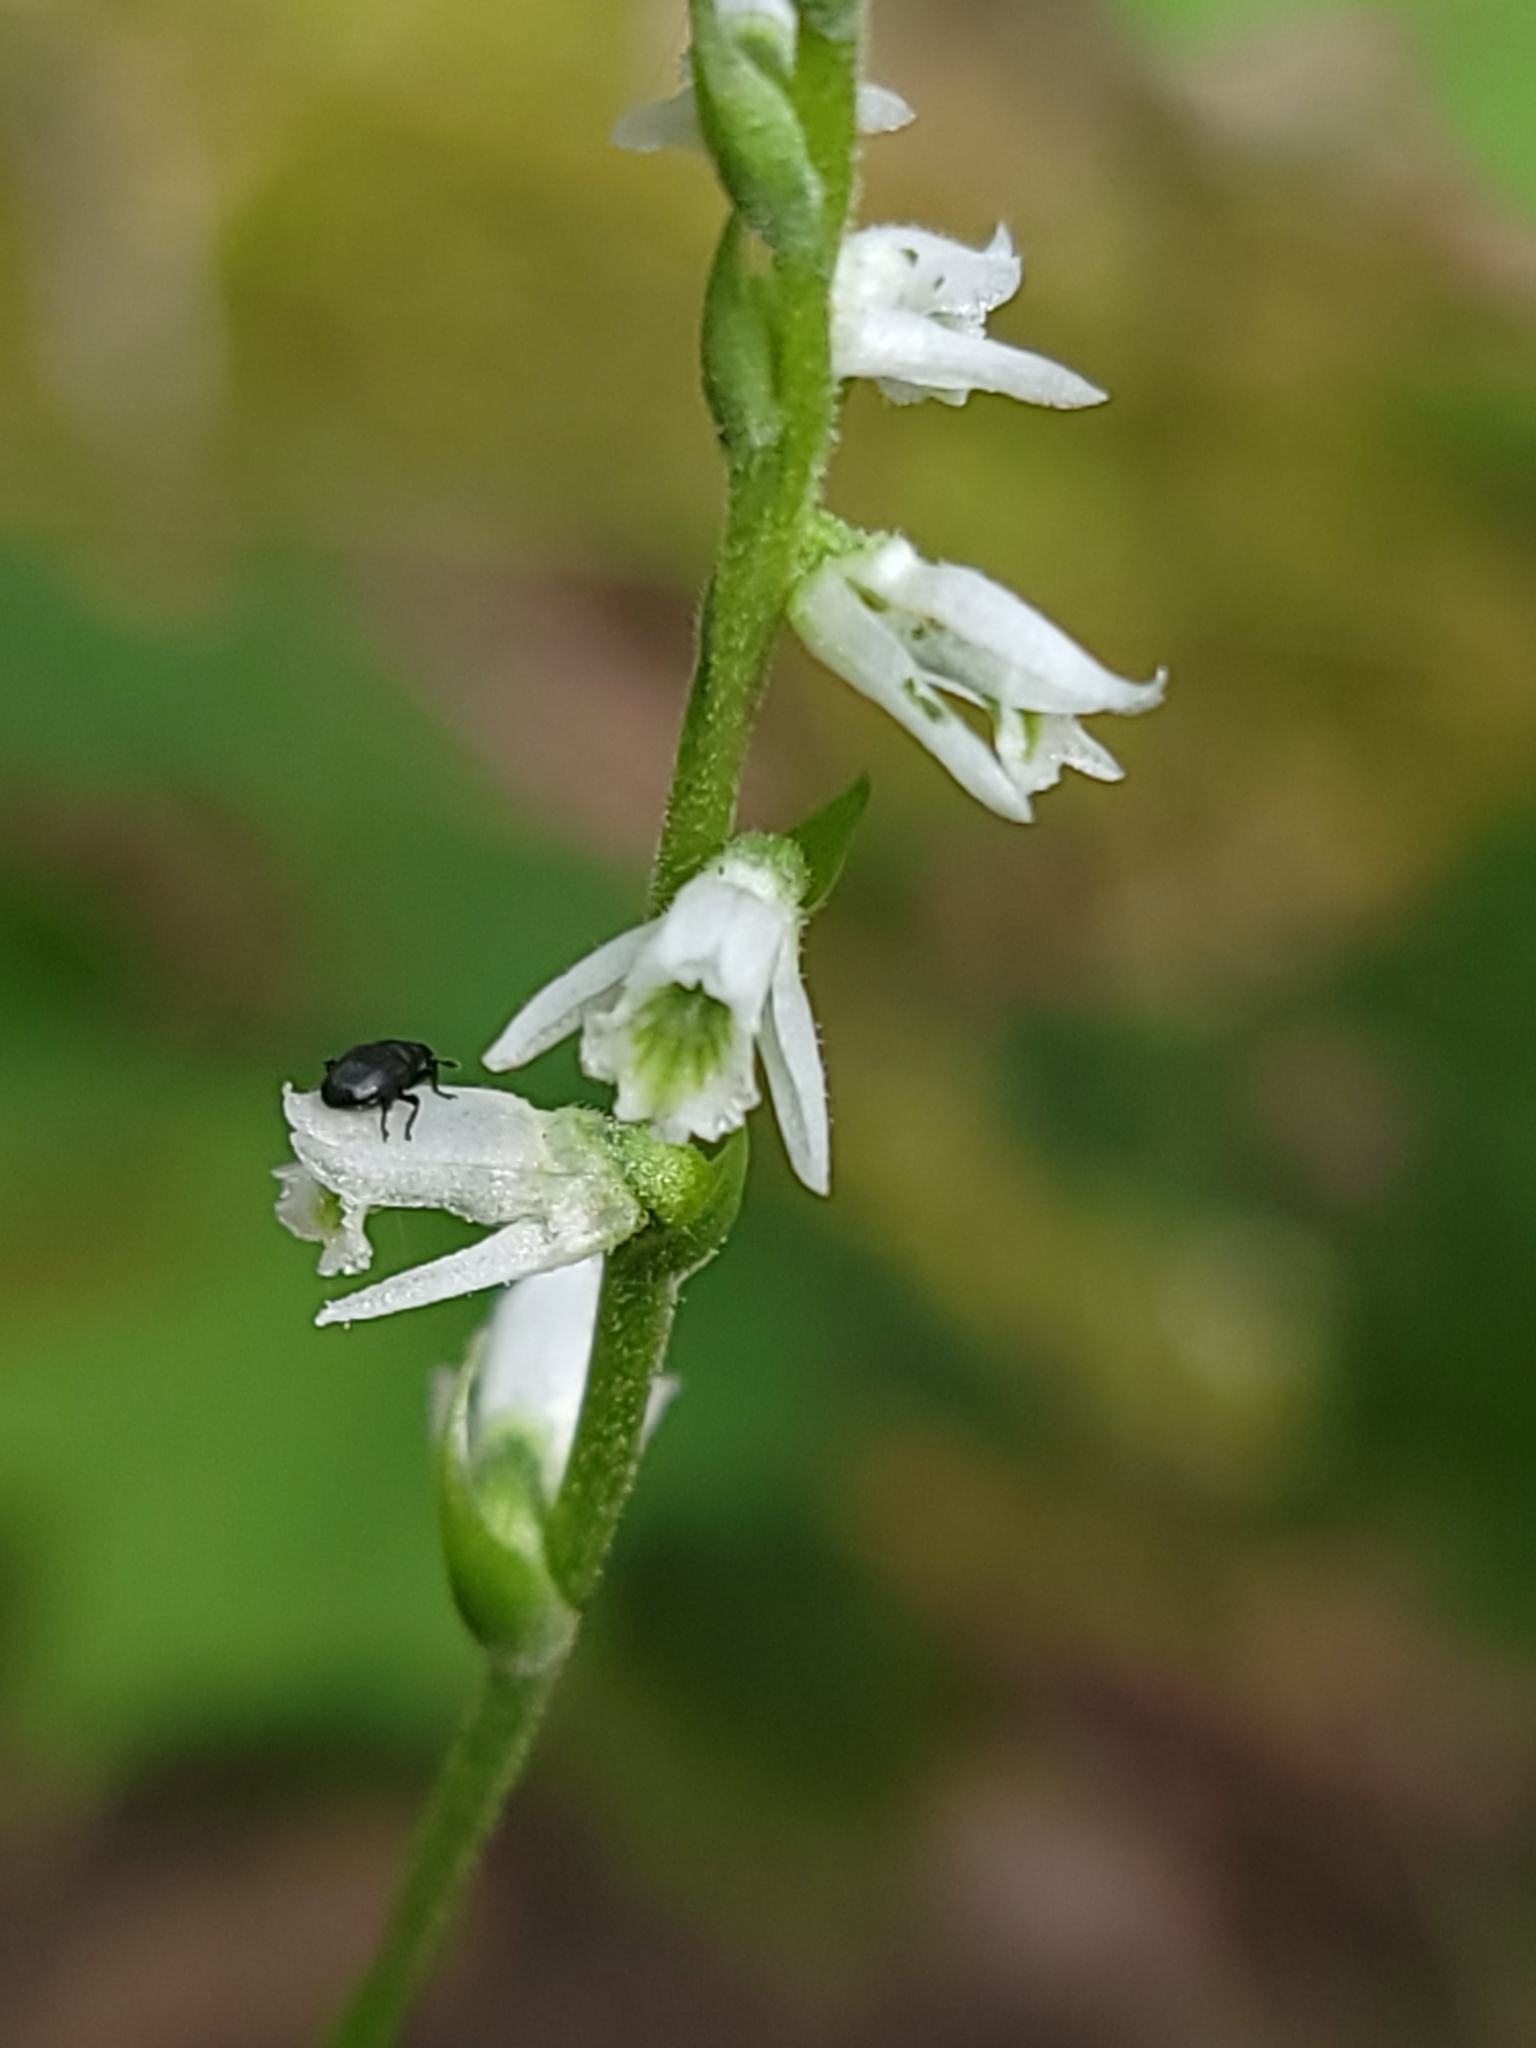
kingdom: Plantae
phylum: Tracheophyta
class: Liliopsida
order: Asparagales
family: Orchidaceae
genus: Spiranthes
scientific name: Spiranthes lacera
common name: Northern slender ladies'-tresses
